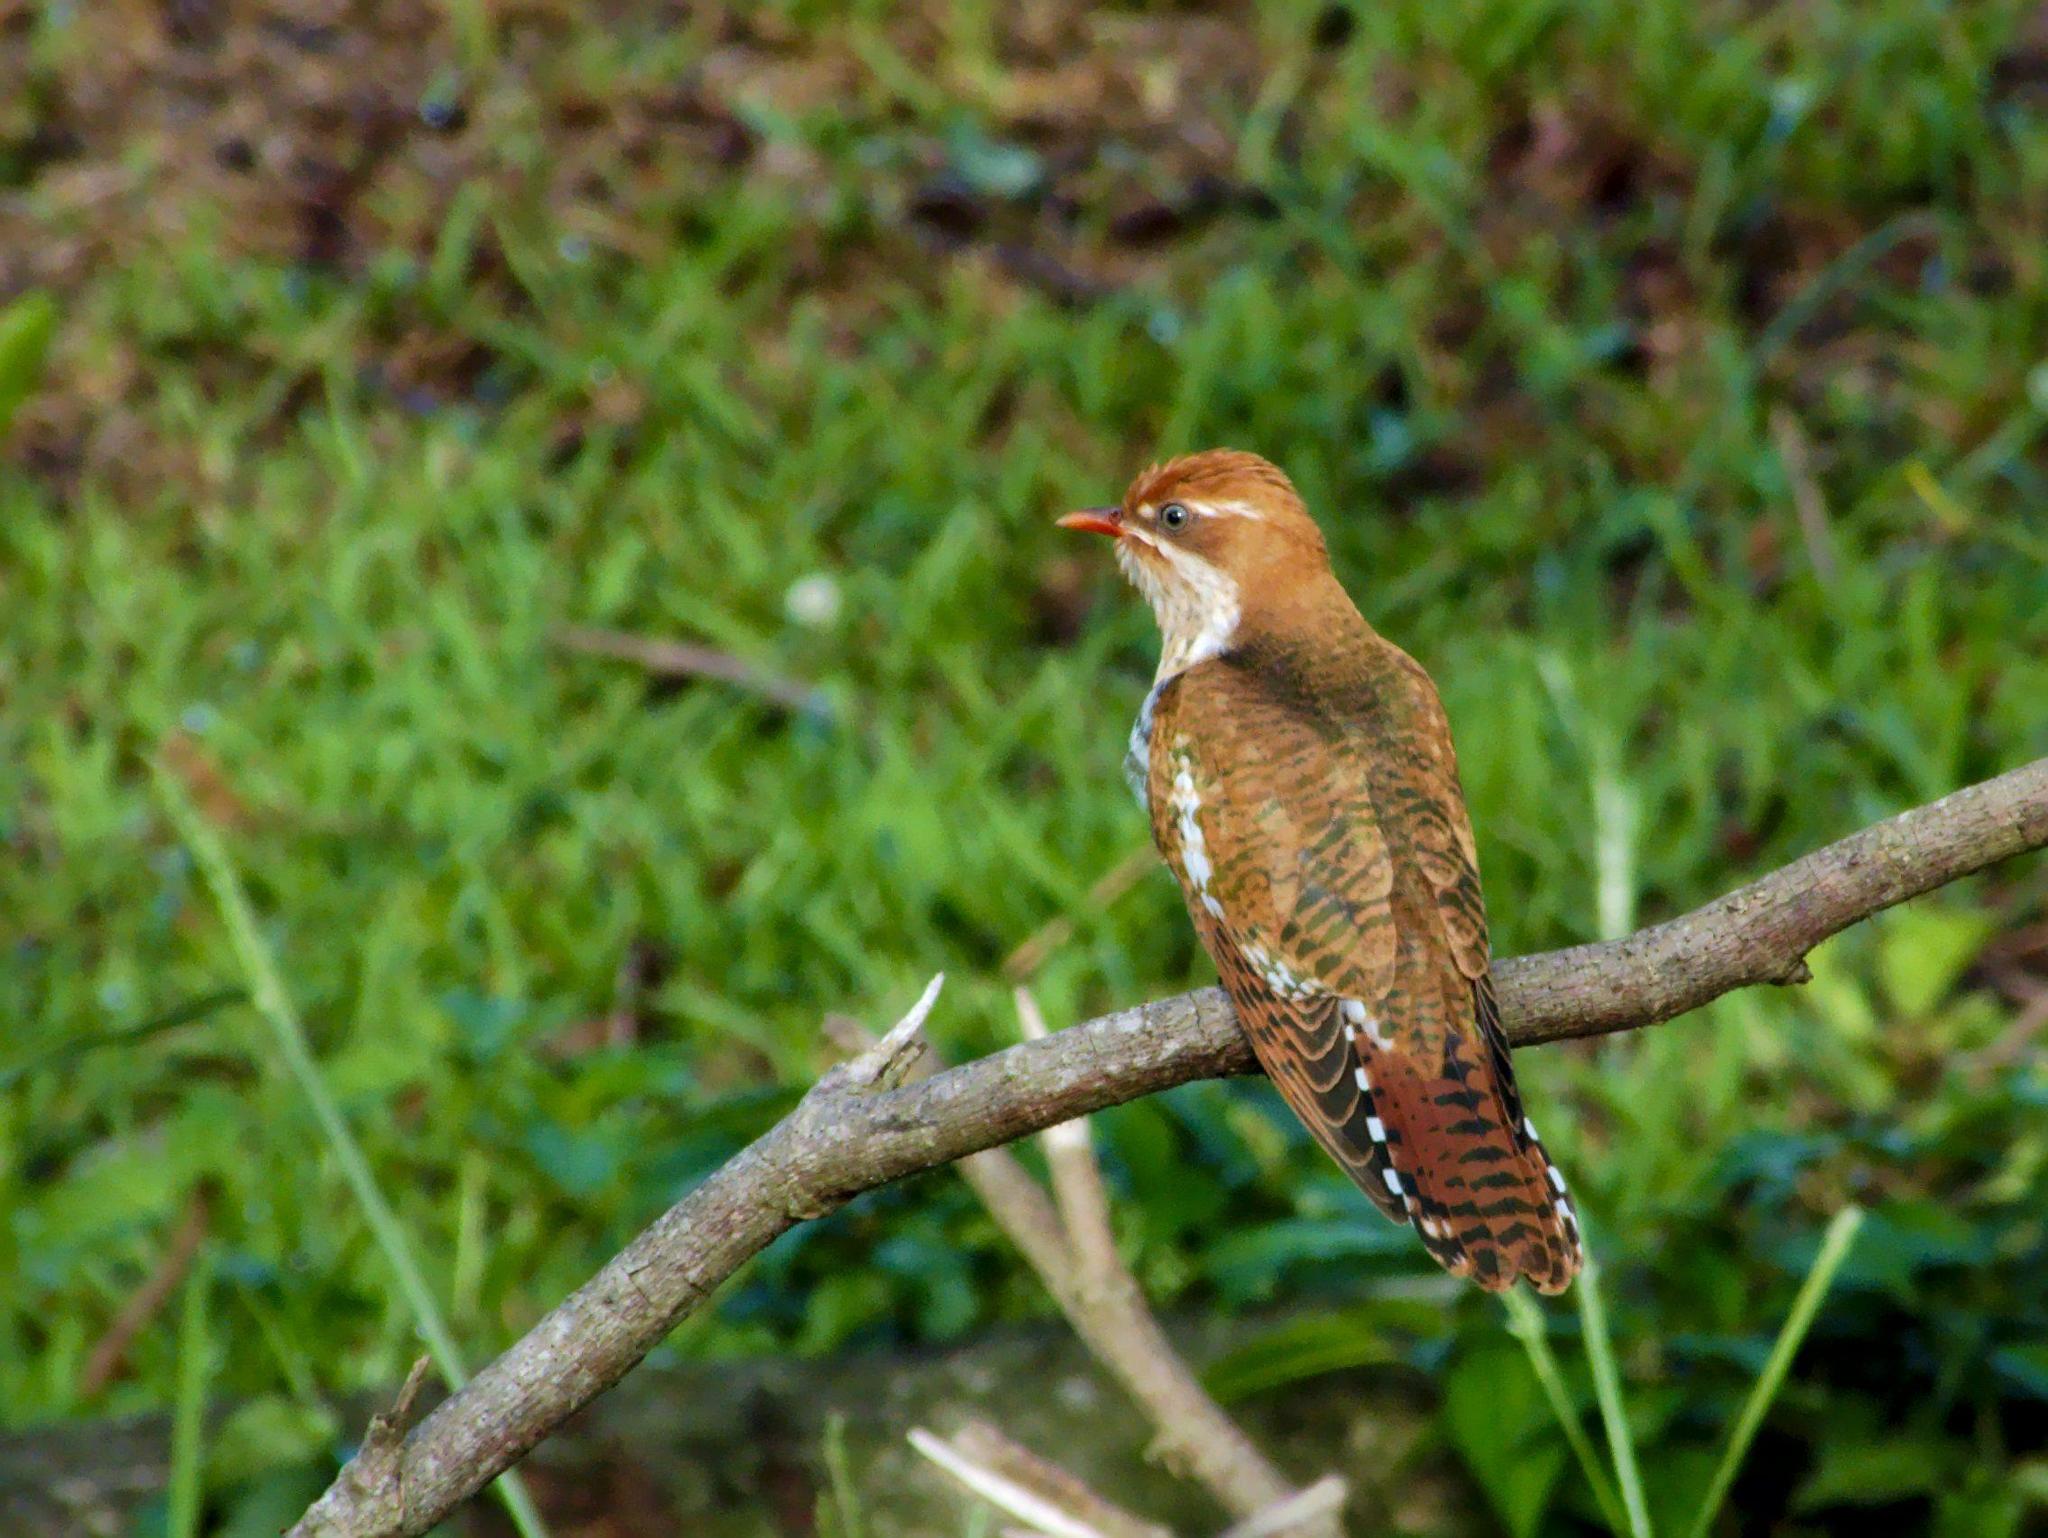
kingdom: Animalia
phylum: Chordata
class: Aves
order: Cuculiformes
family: Cuculidae
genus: Chrysococcyx
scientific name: Chrysococcyx caprius
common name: Diederik cuckoo
